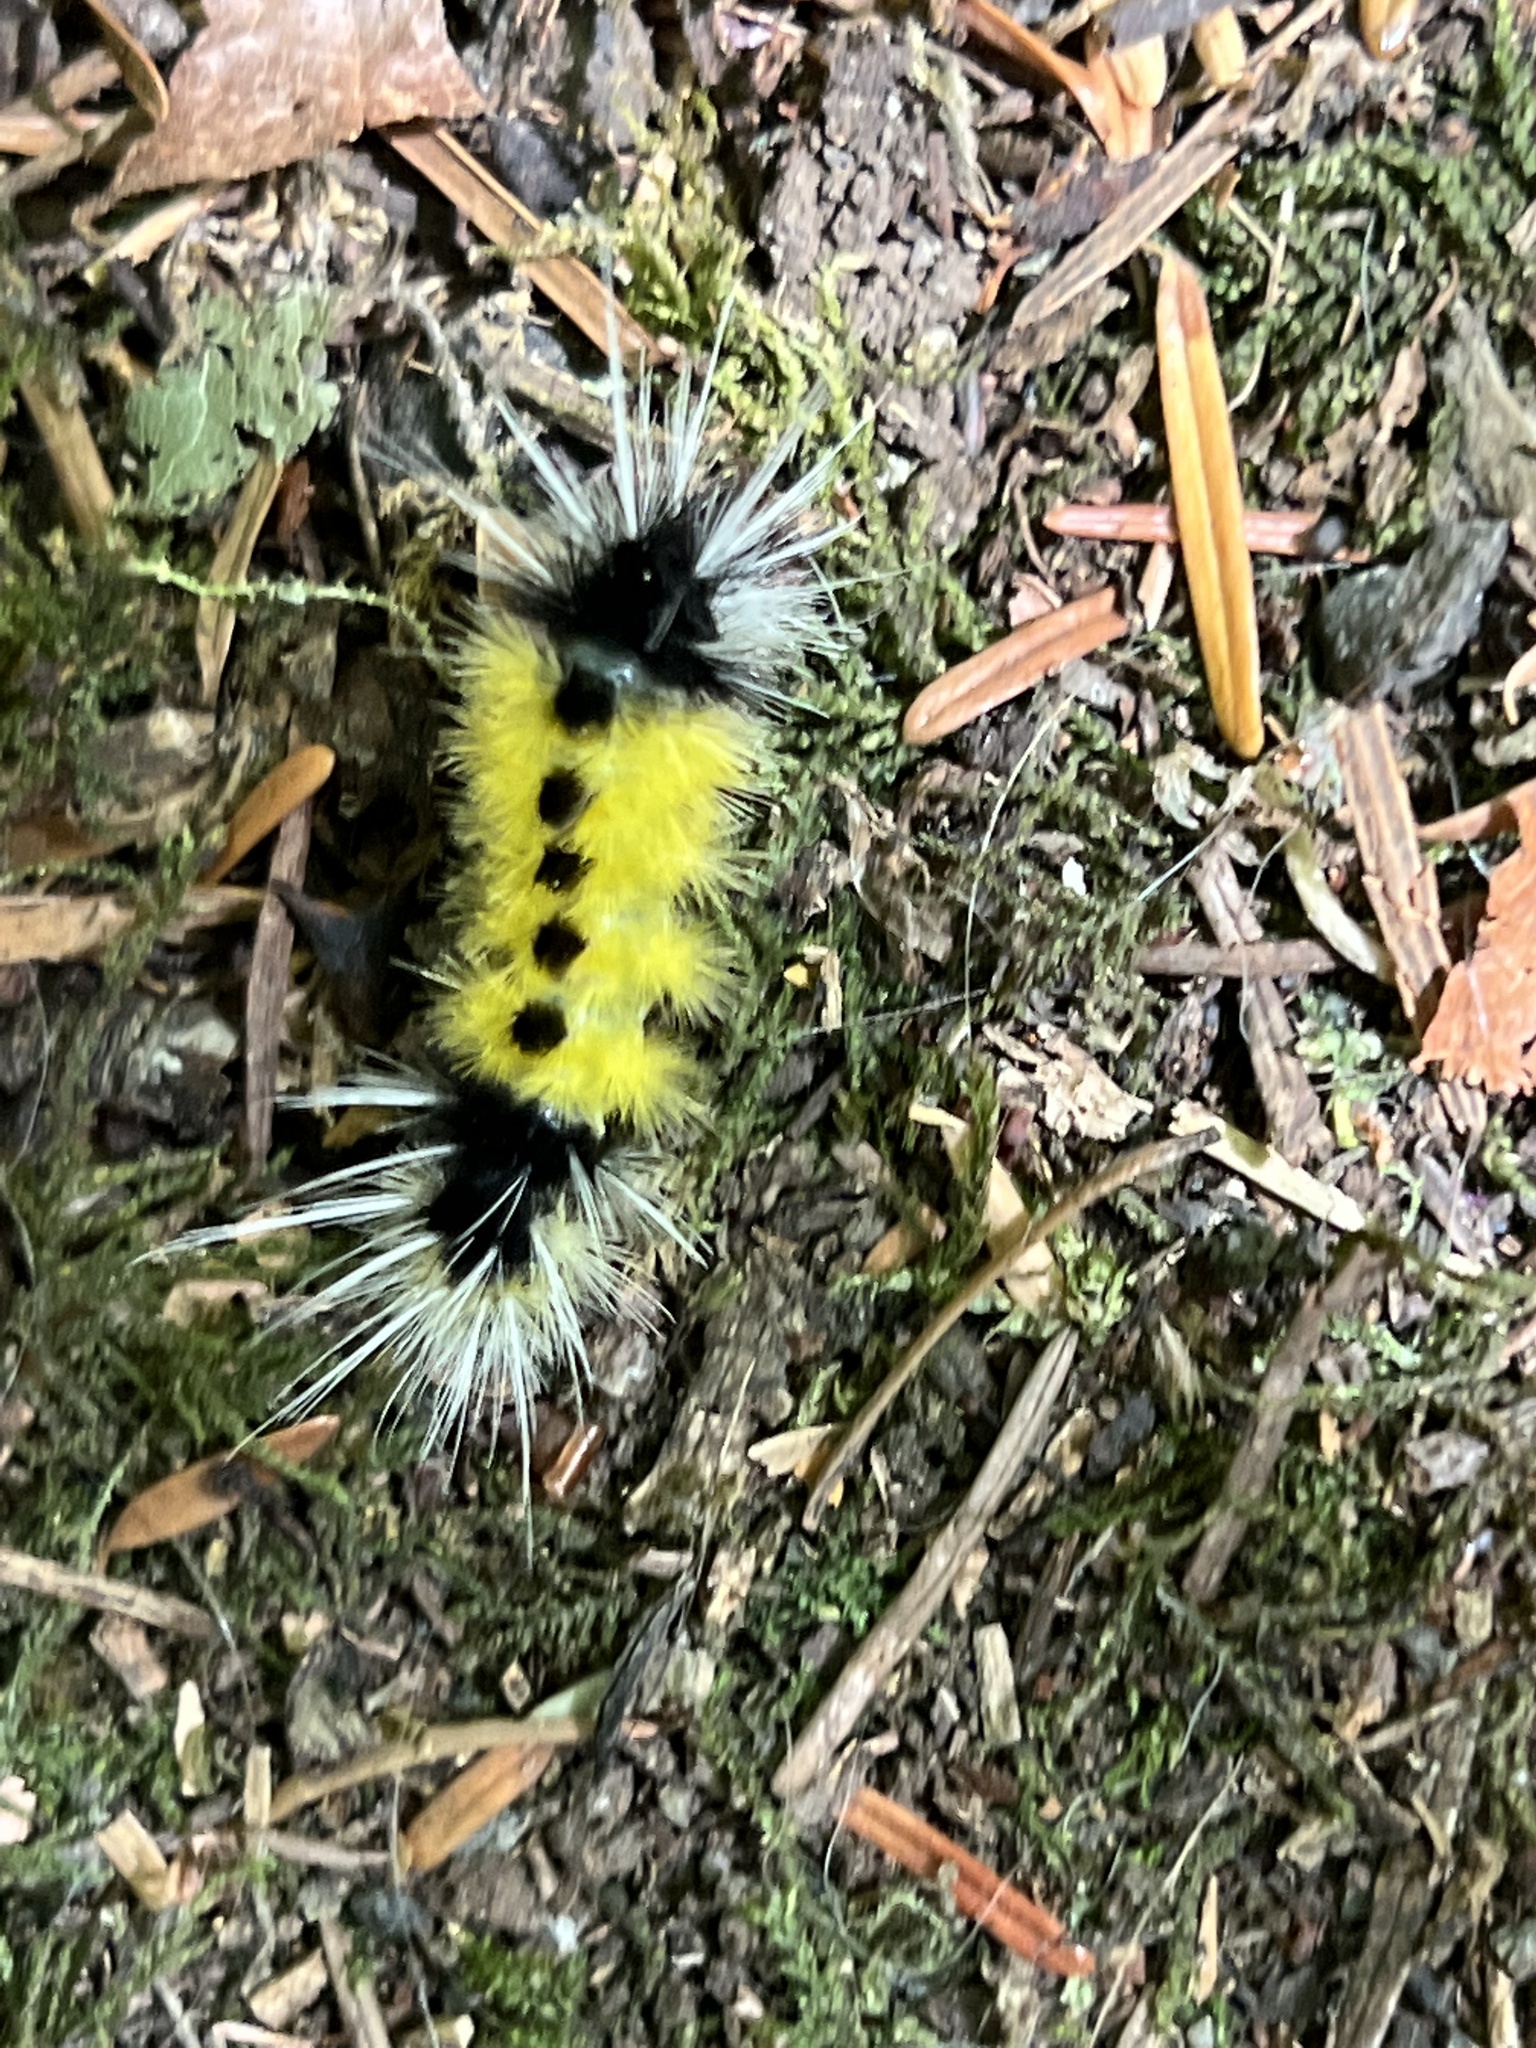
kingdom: Animalia
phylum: Arthropoda
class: Insecta
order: Lepidoptera
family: Erebidae
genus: Lophocampa
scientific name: Lophocampa maculata
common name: Spotted tussock moth
